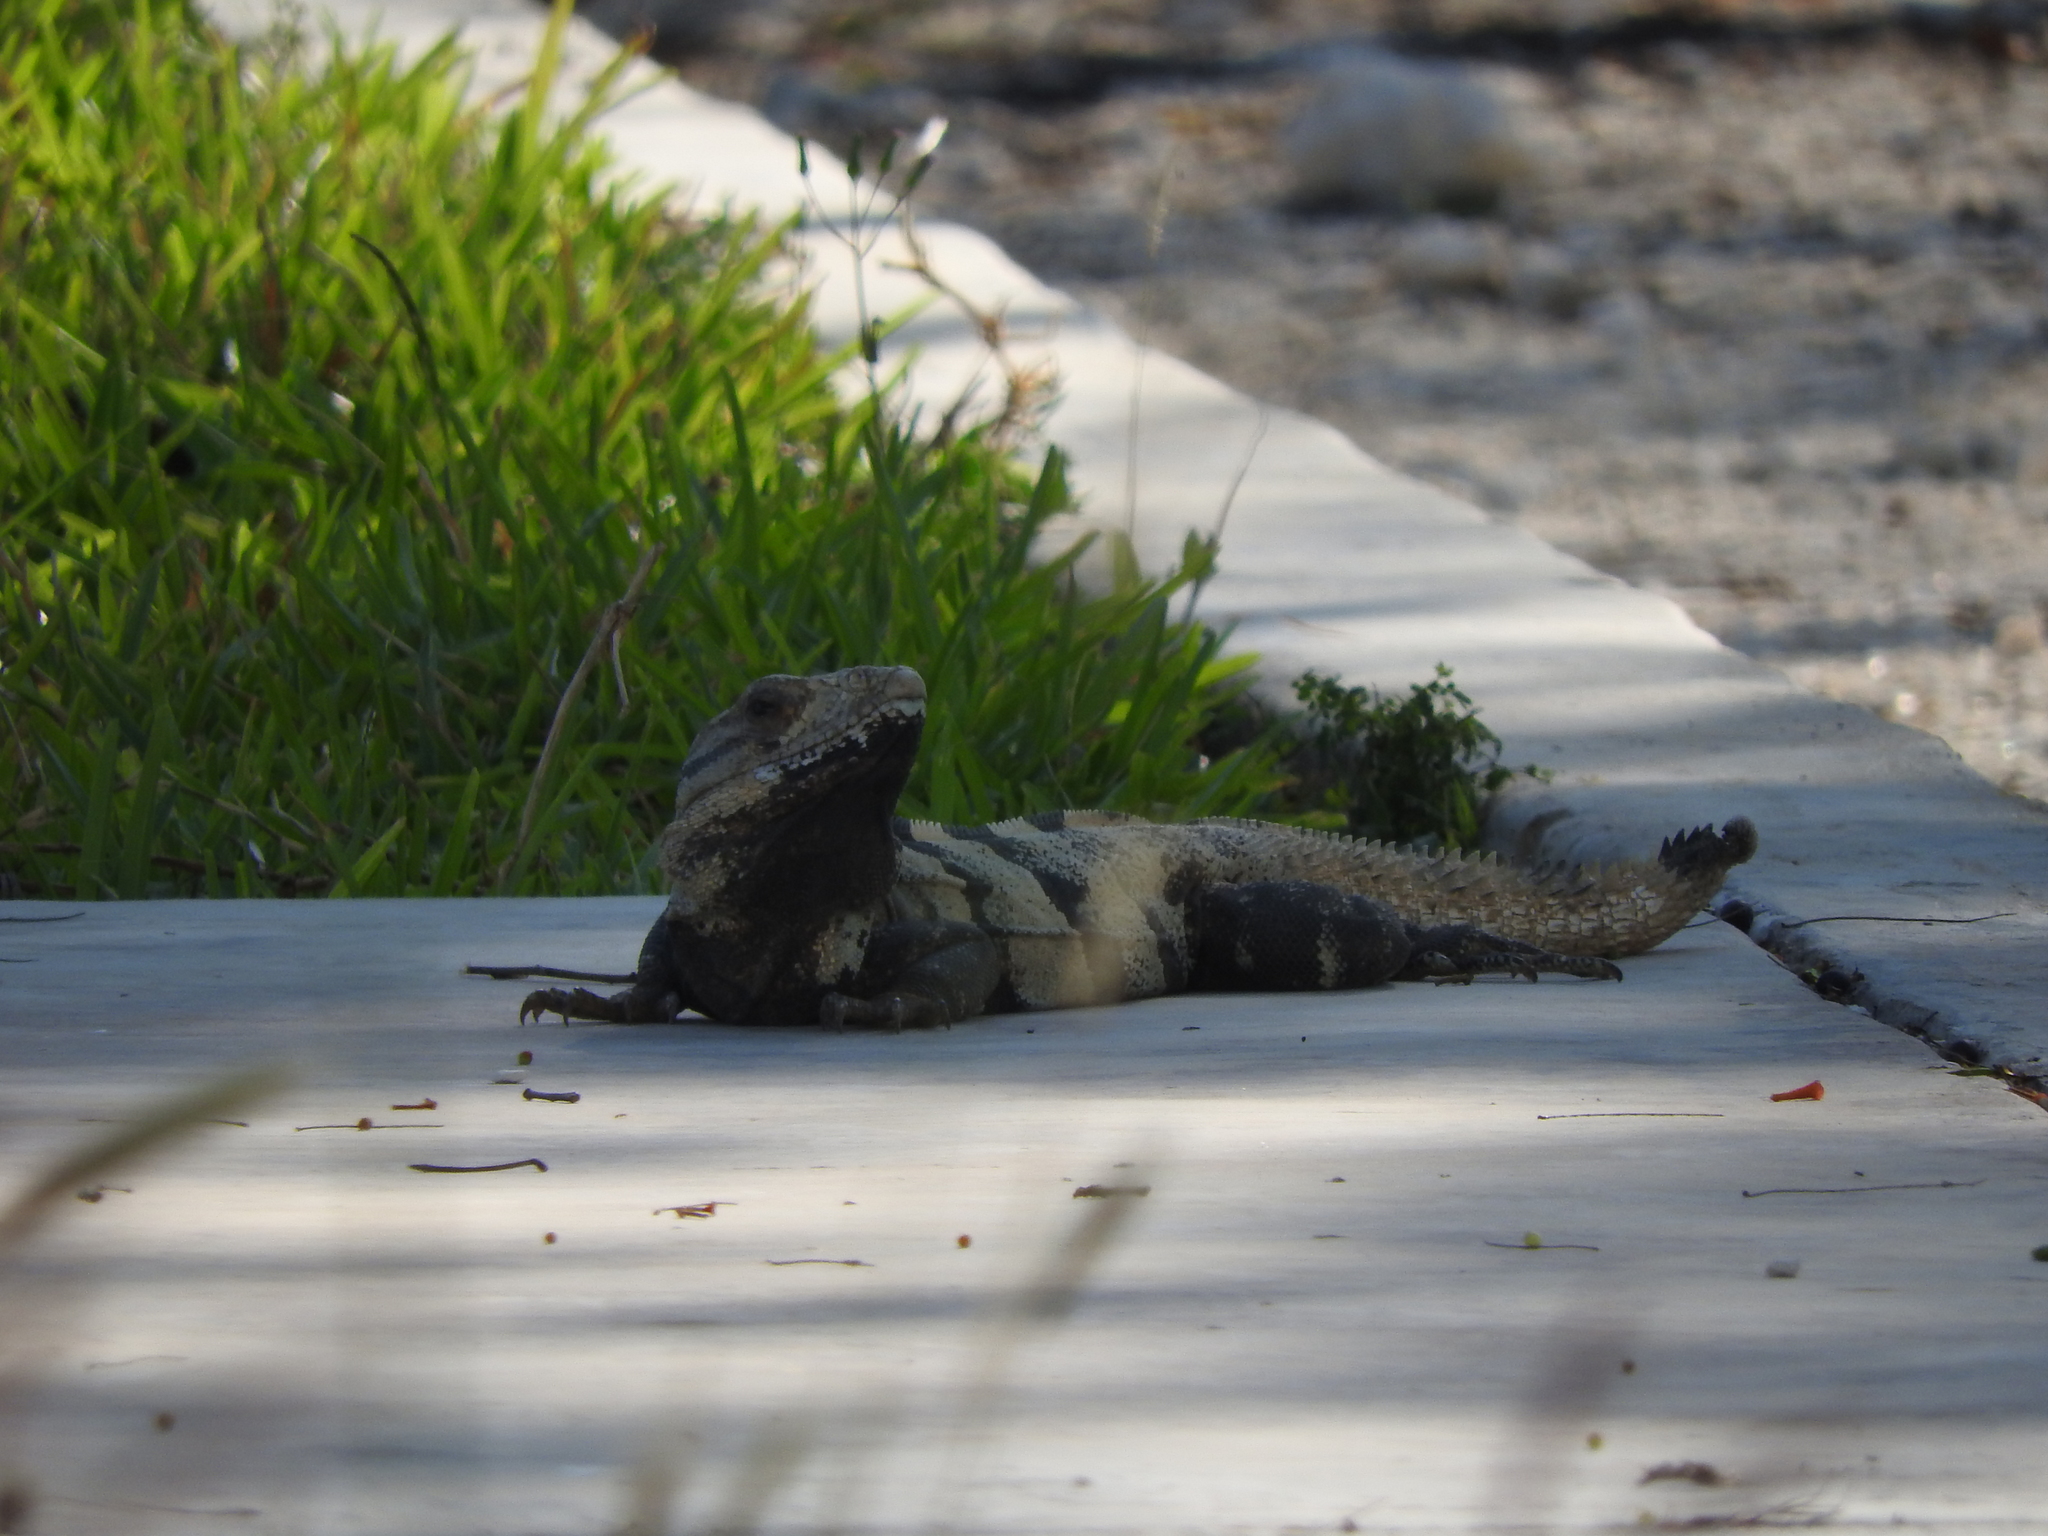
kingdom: Animalia
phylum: Chordata
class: Squamata
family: Iguanidae
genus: Ctenosaura
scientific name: Ctenosaura similis
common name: Black spiny-tailed iguana
